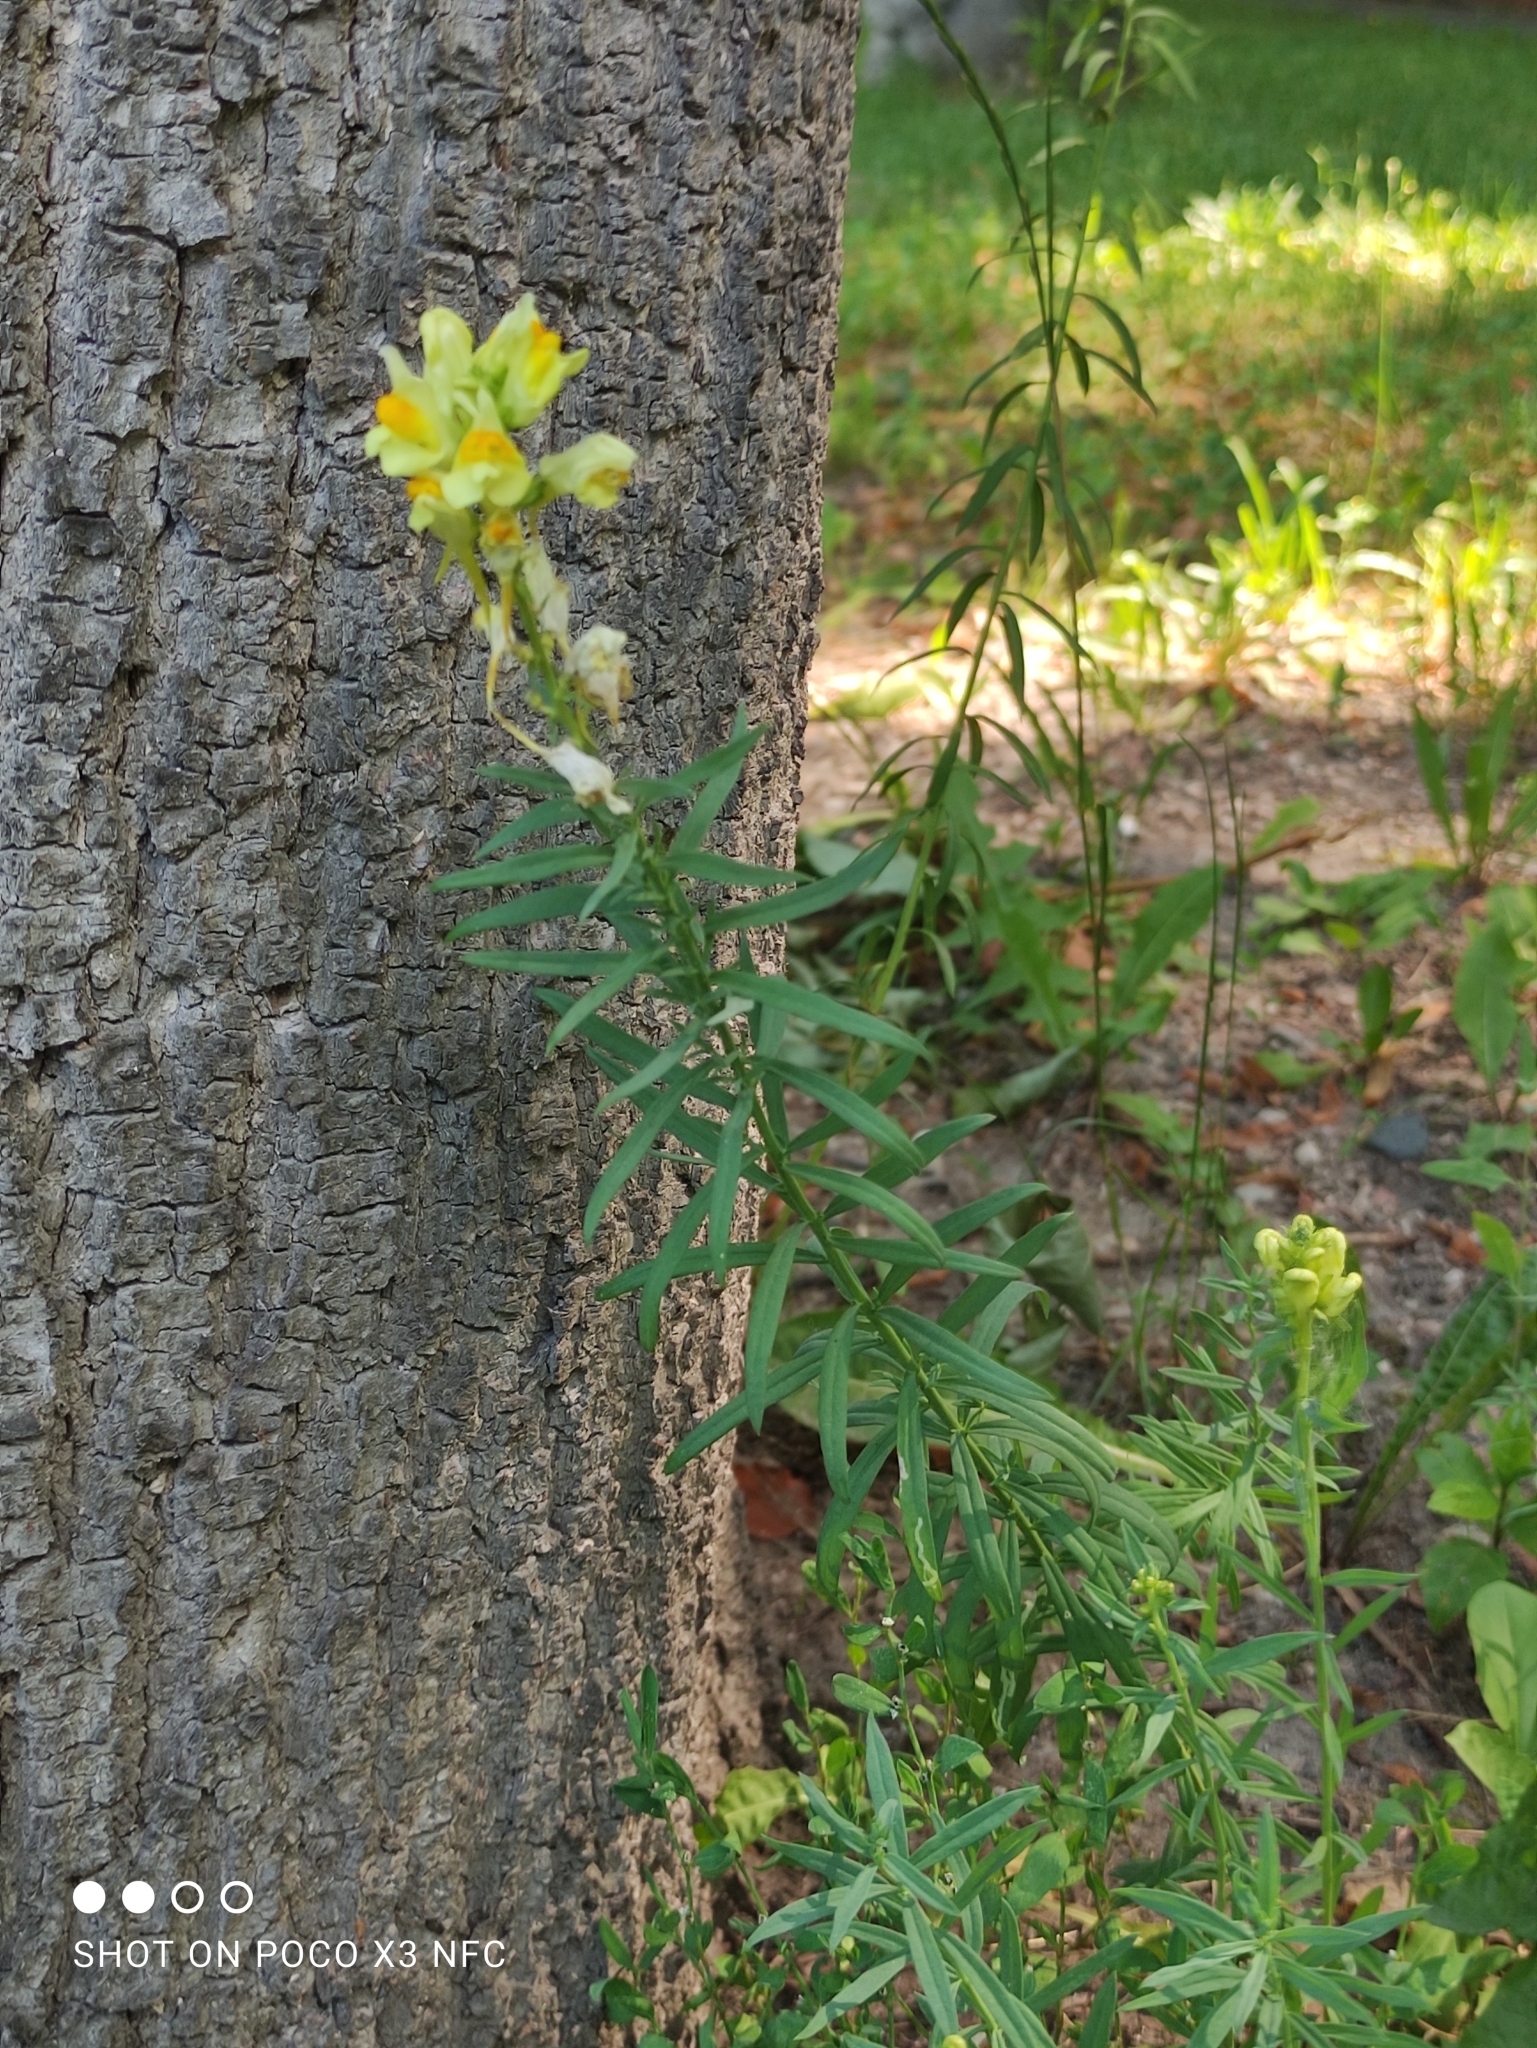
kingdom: Plantae
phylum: Tracheophyta
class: Magnoliopsida
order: Lamiales
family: Plantaginaceae
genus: Linaria
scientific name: Linaria vulgaris
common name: Butter and eggs
